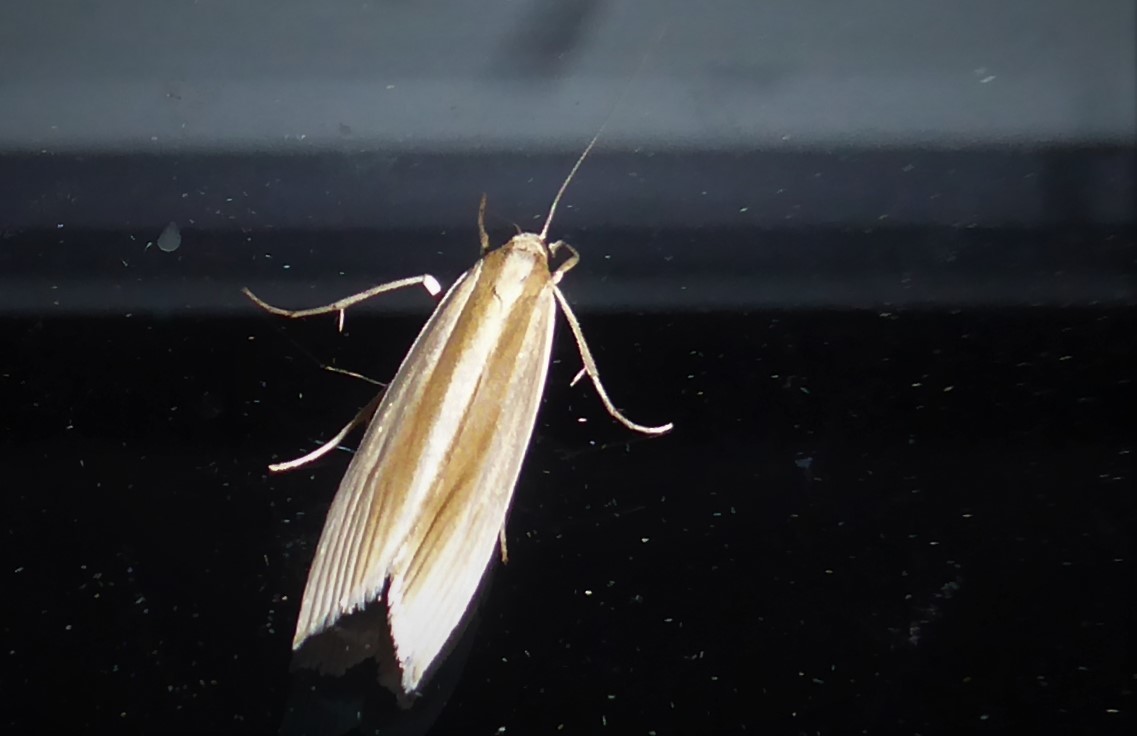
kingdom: Animalia
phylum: Arthropoda
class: Insecta
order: Lepidoptera
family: Crambidae
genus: Orocrambus
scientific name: Orocrambus angustipennis
